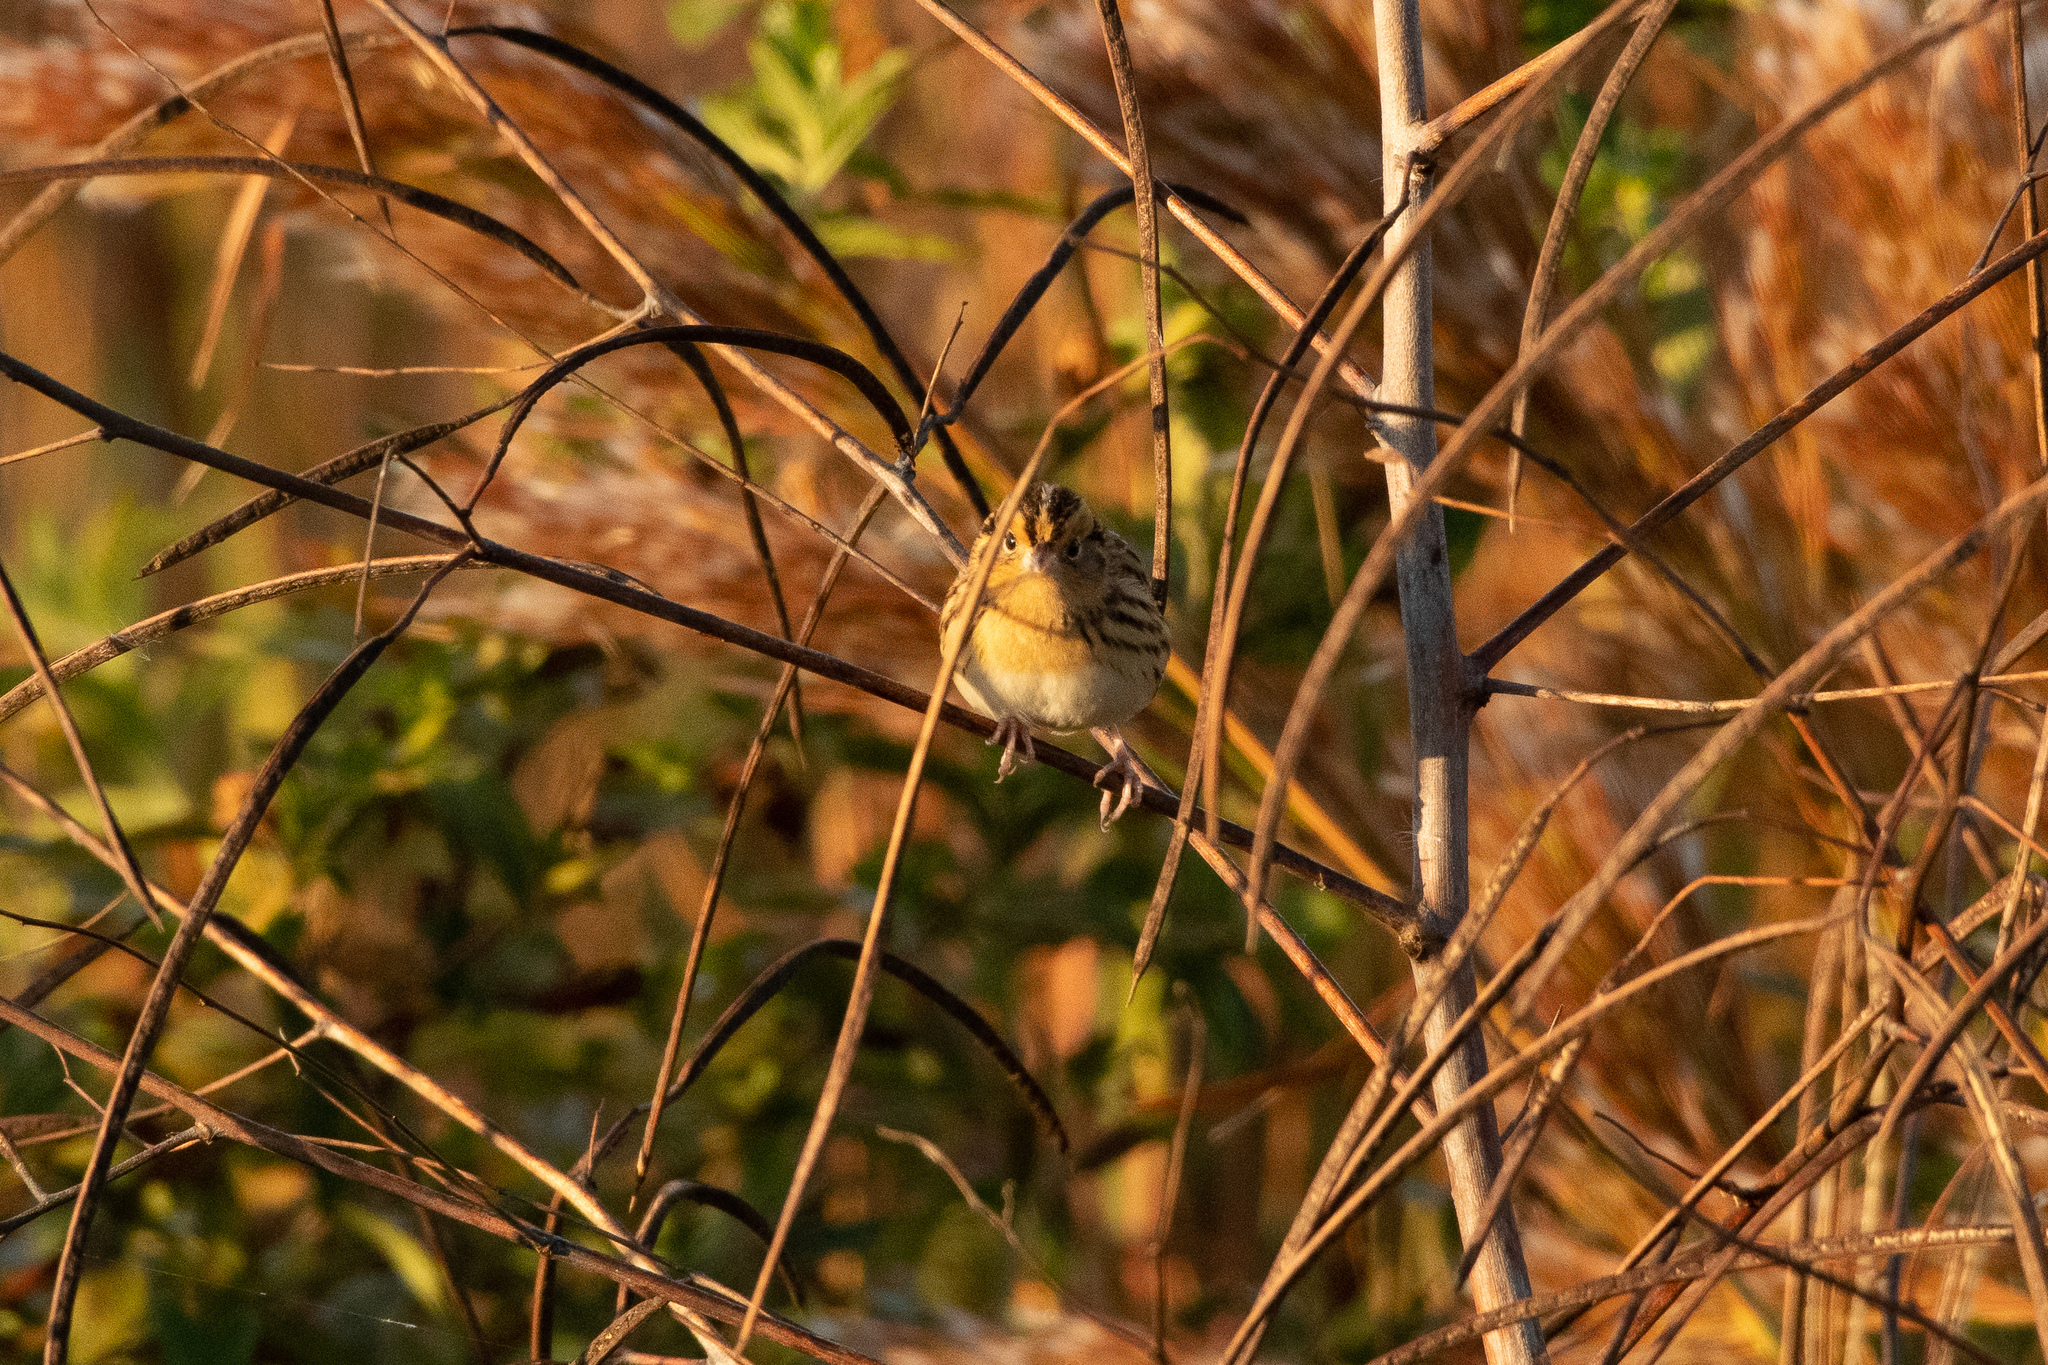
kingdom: Animalia
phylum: Chordata
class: Aves
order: Passeriformes
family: Passerellidae
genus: Ammospiza
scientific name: Ammospiza leconteii
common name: Le conte's sparrow
